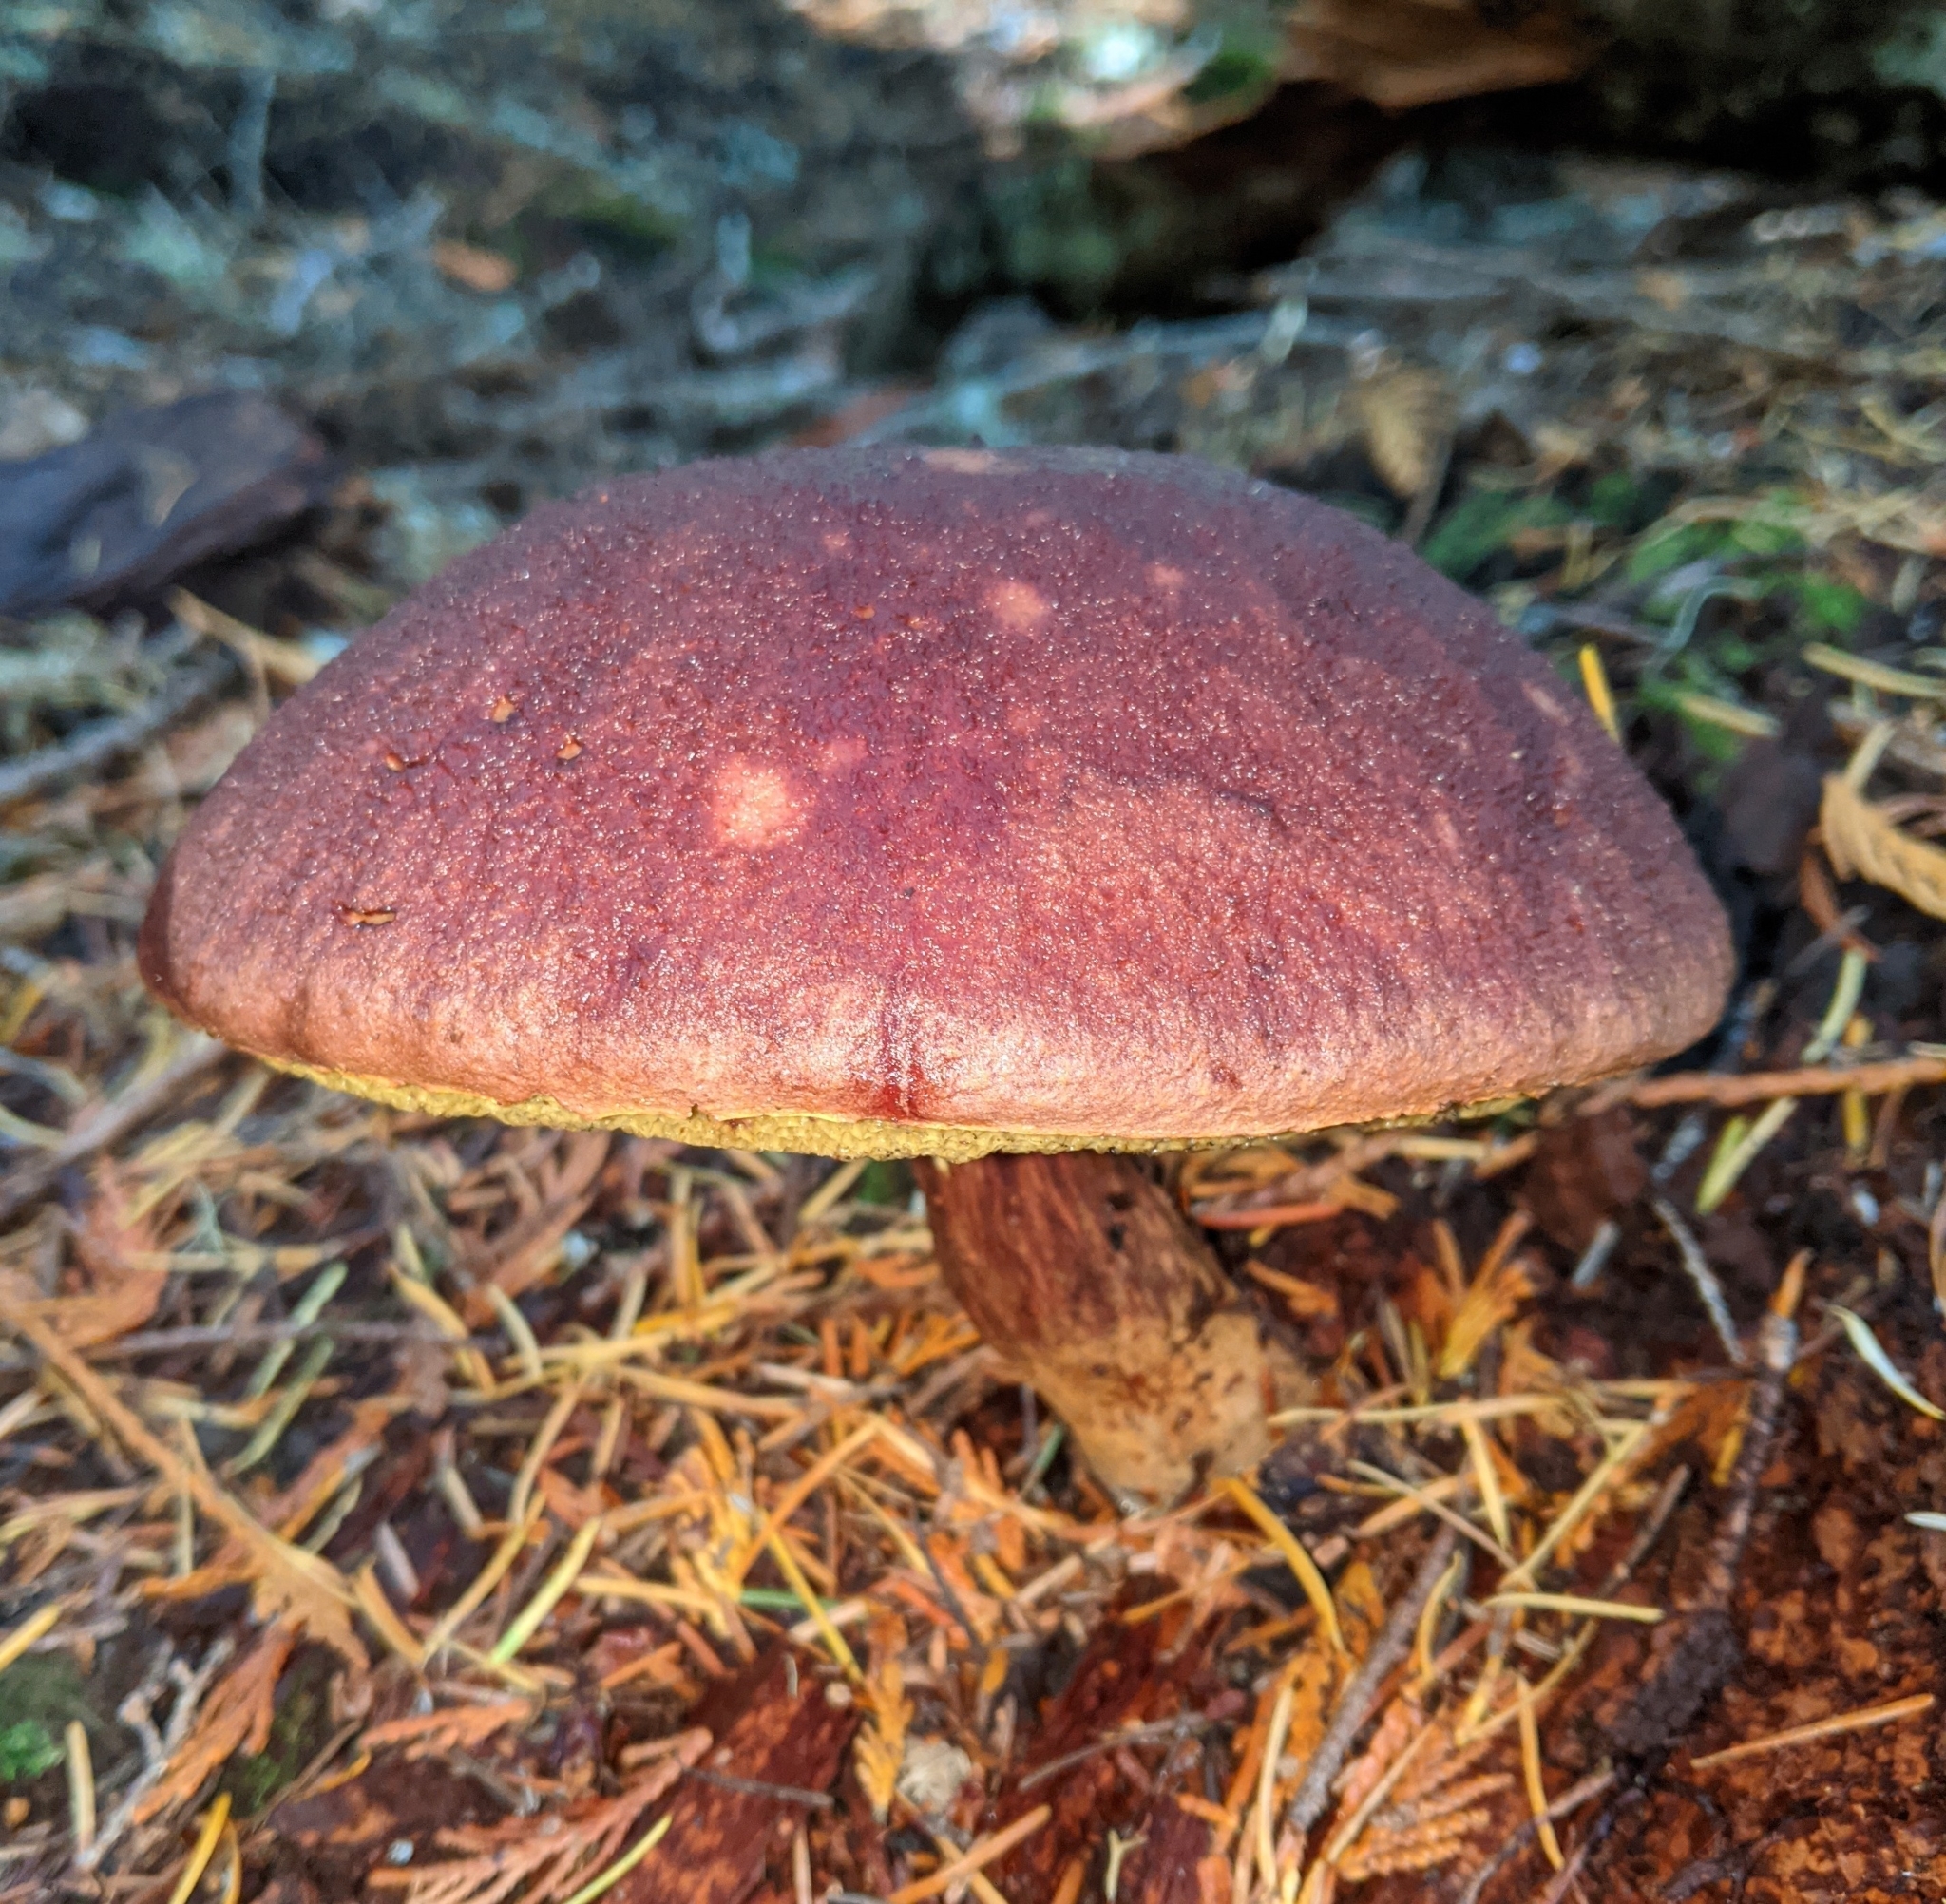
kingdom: Fungi
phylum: Basidiomycota
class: Agaricomycetes
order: Boletales
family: Boletaceae
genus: Aureoboletus
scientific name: Aureoboletus mirabilis
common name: Admirable bolete
